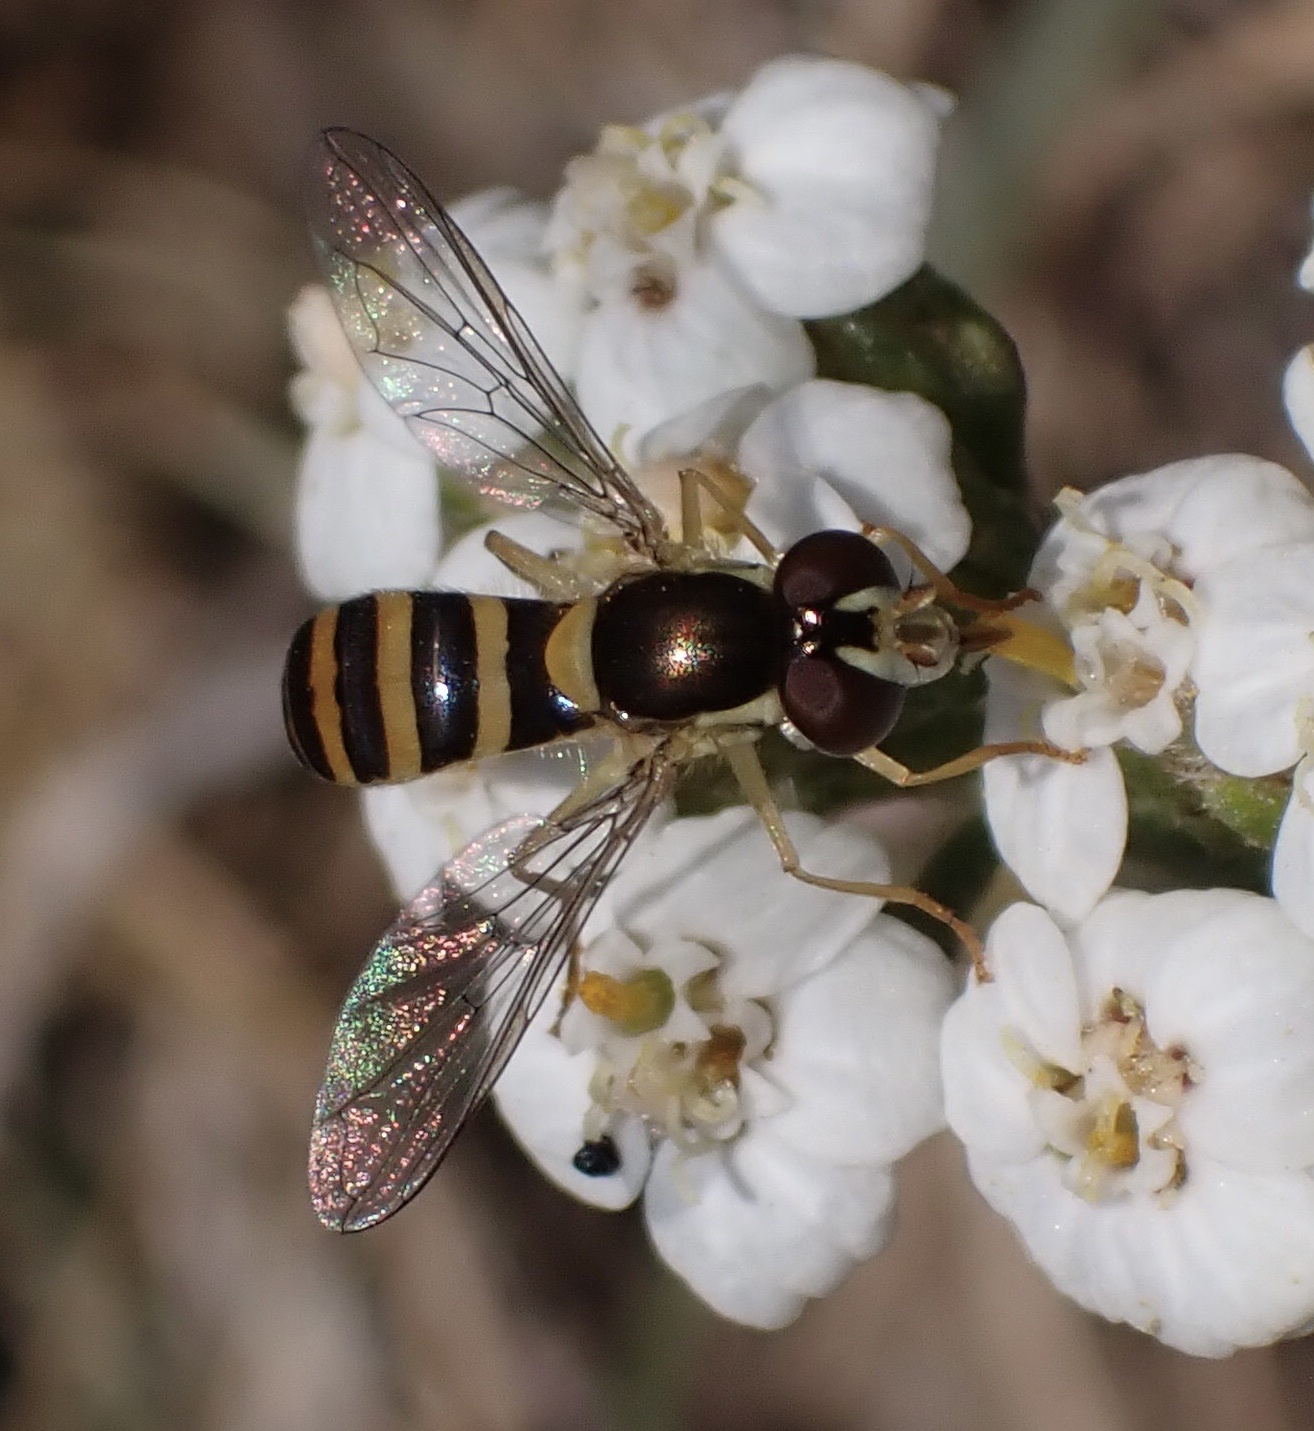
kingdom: Animalia
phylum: Arthropoda
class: Insecta
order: Diptera
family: Syrphidae
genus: Sphaerophoria
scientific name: Sphaerophoria
